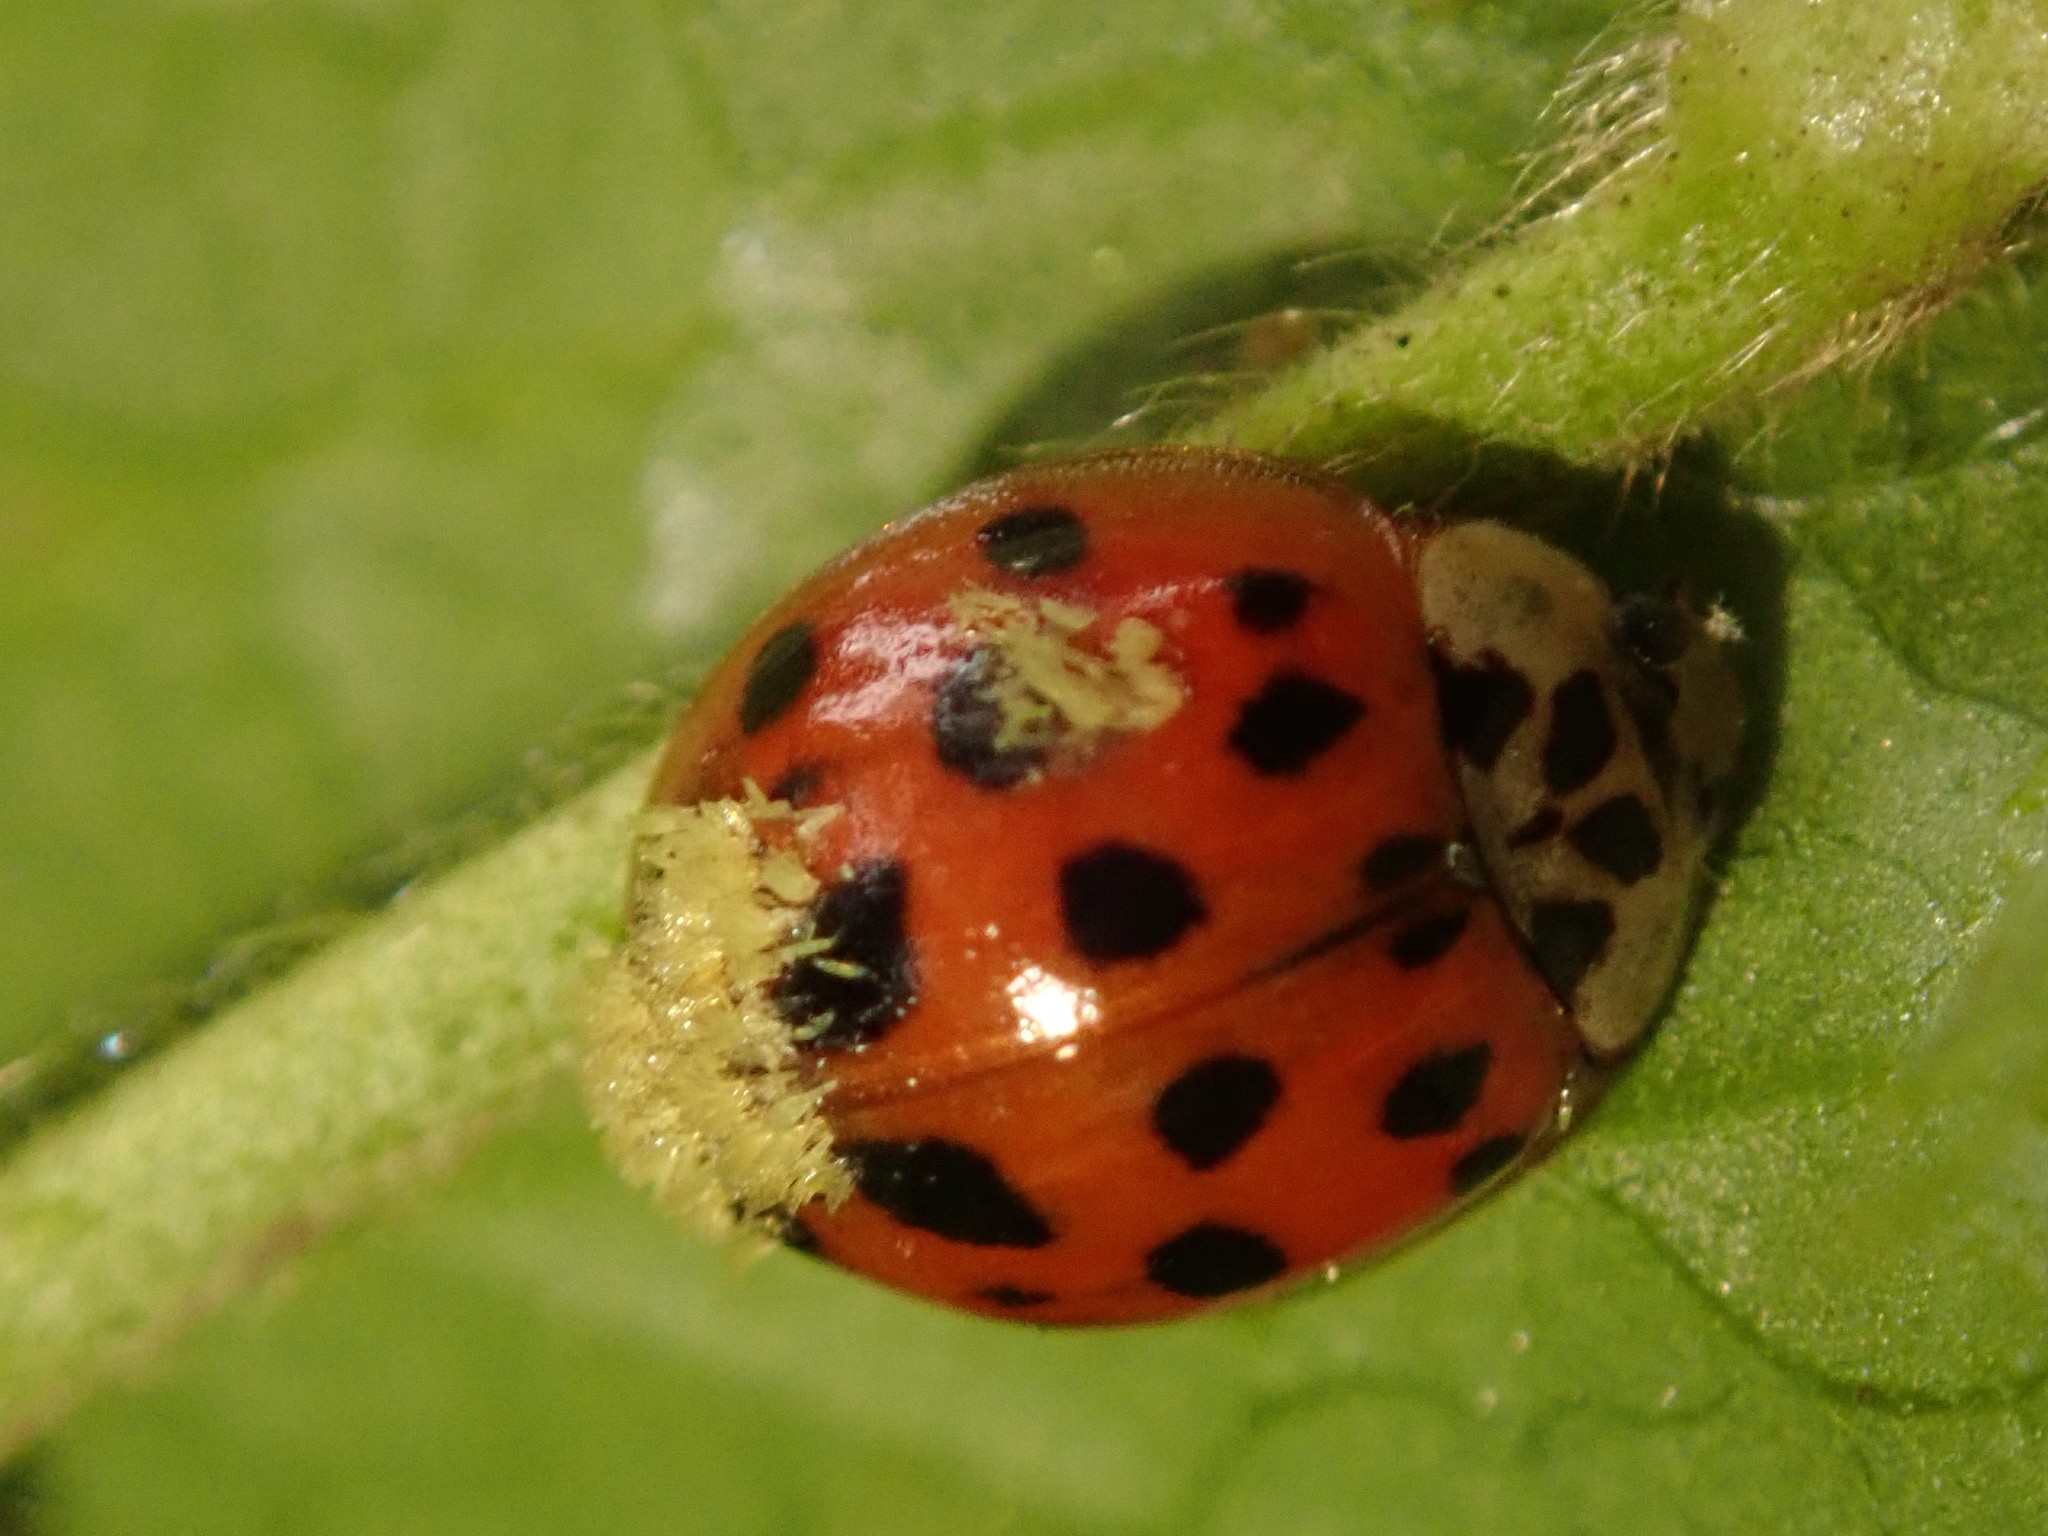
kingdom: Animalia
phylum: Arthropoda
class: Insecta
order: Coleoptera
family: Coccinellidae
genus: Harmonia
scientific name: Harmonia axyridis
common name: Harlequin ladybird
